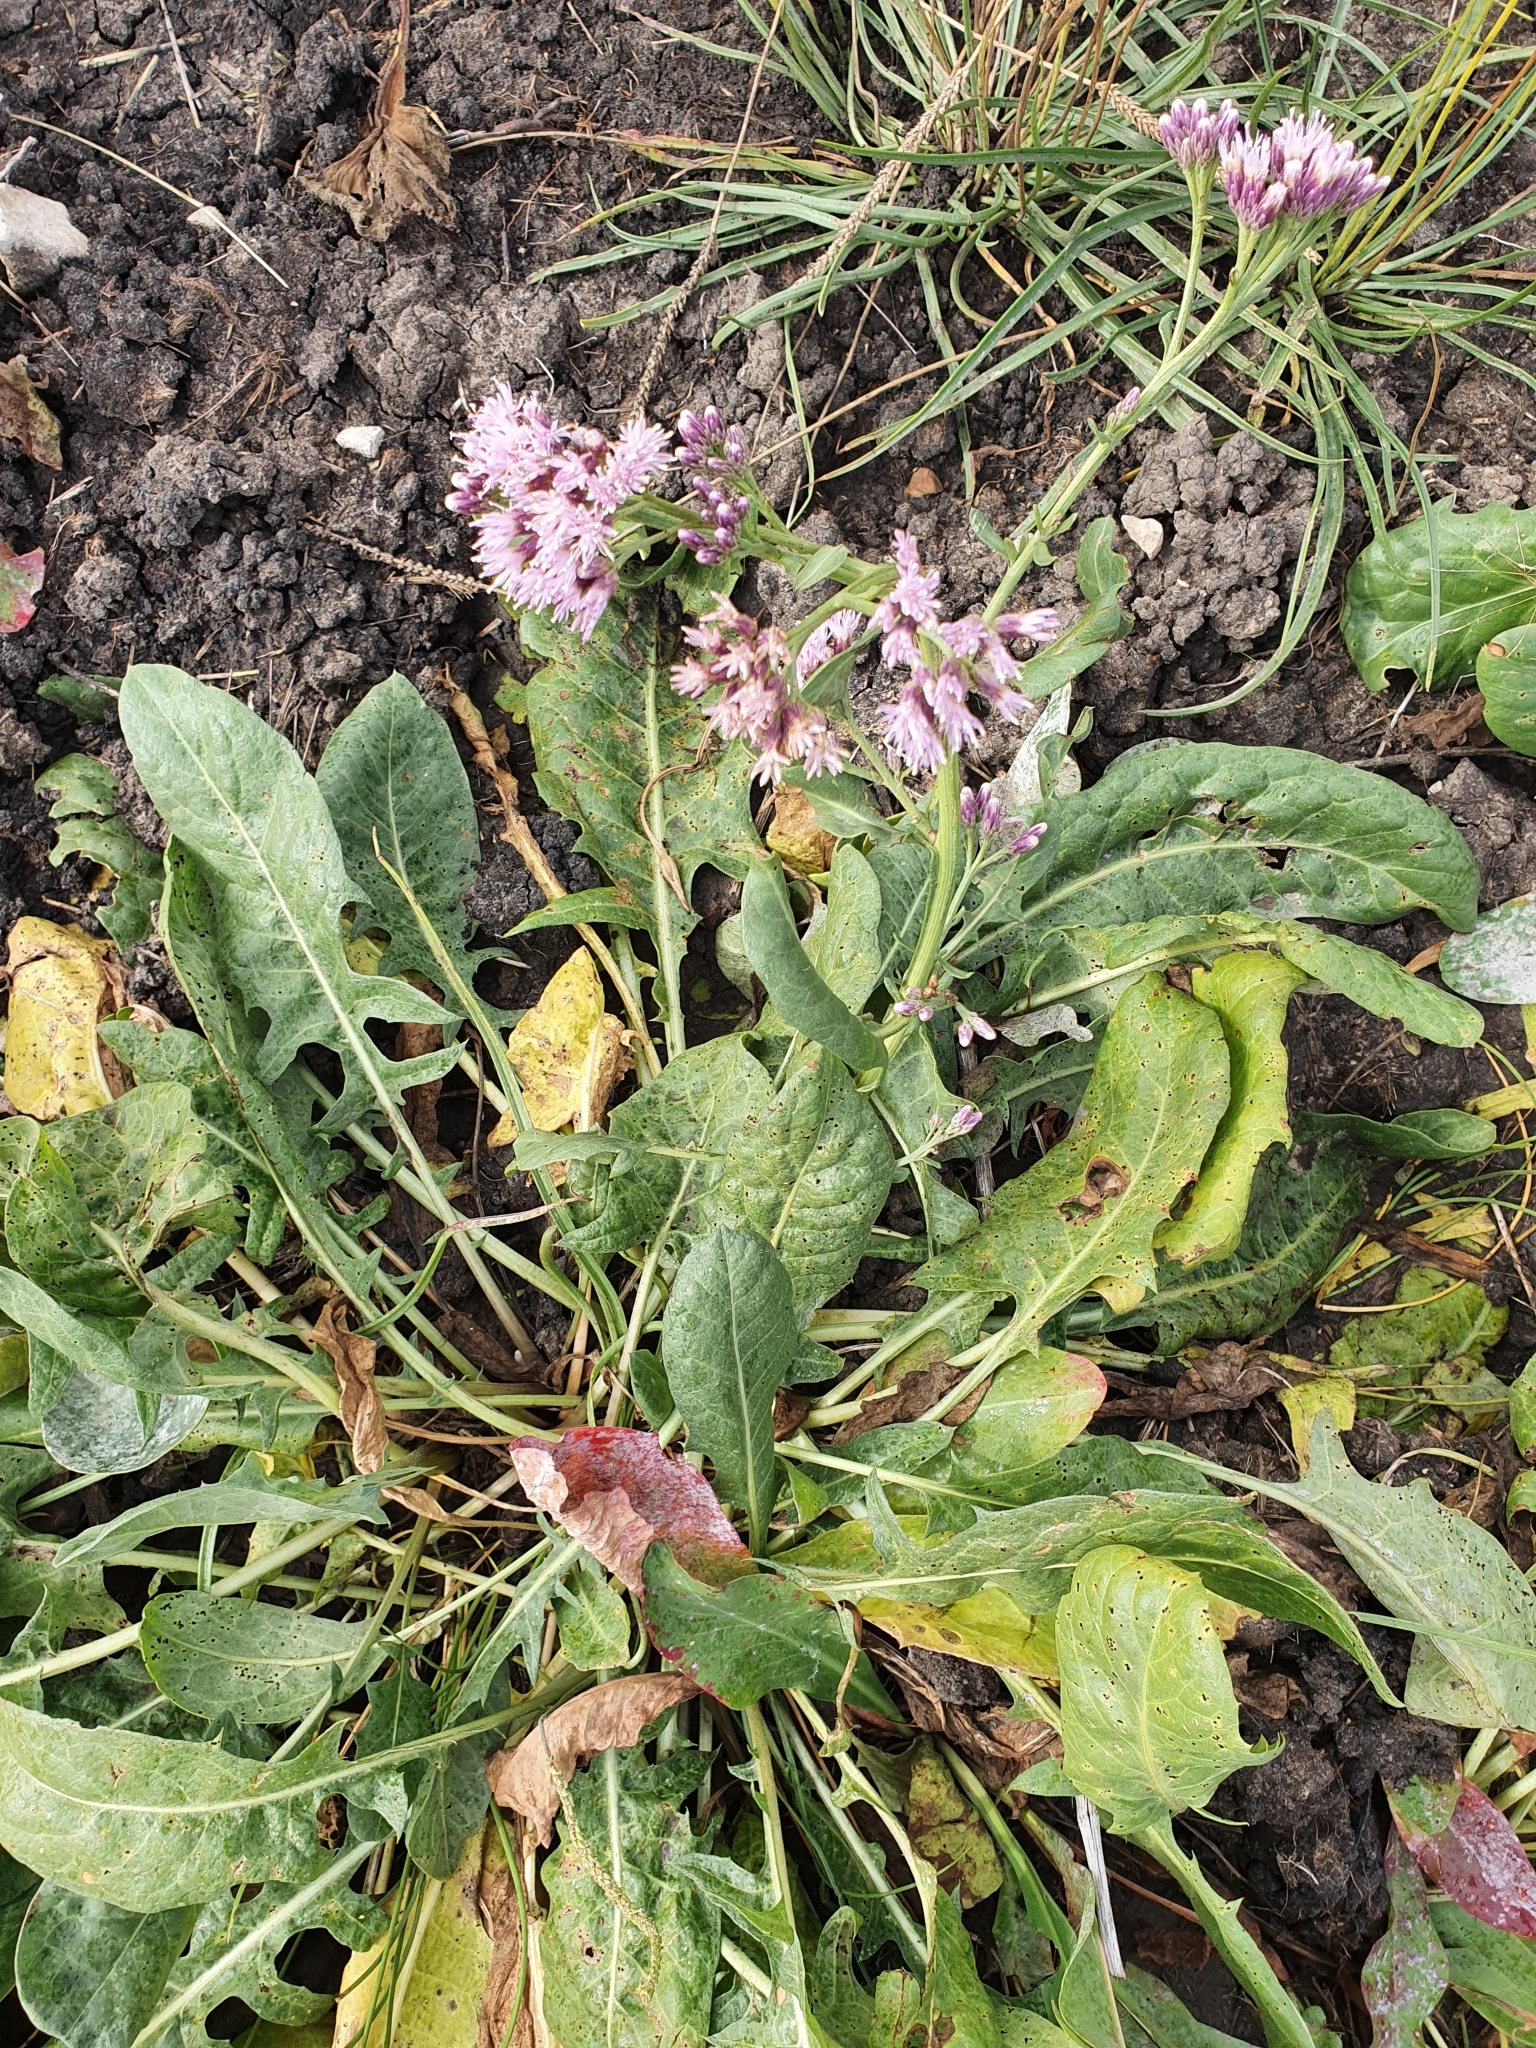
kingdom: Plantae
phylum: Tracheophyta
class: Magnoliopsida
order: Asterales
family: Asteraceae
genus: Saussurea
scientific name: Saussurea salsa
